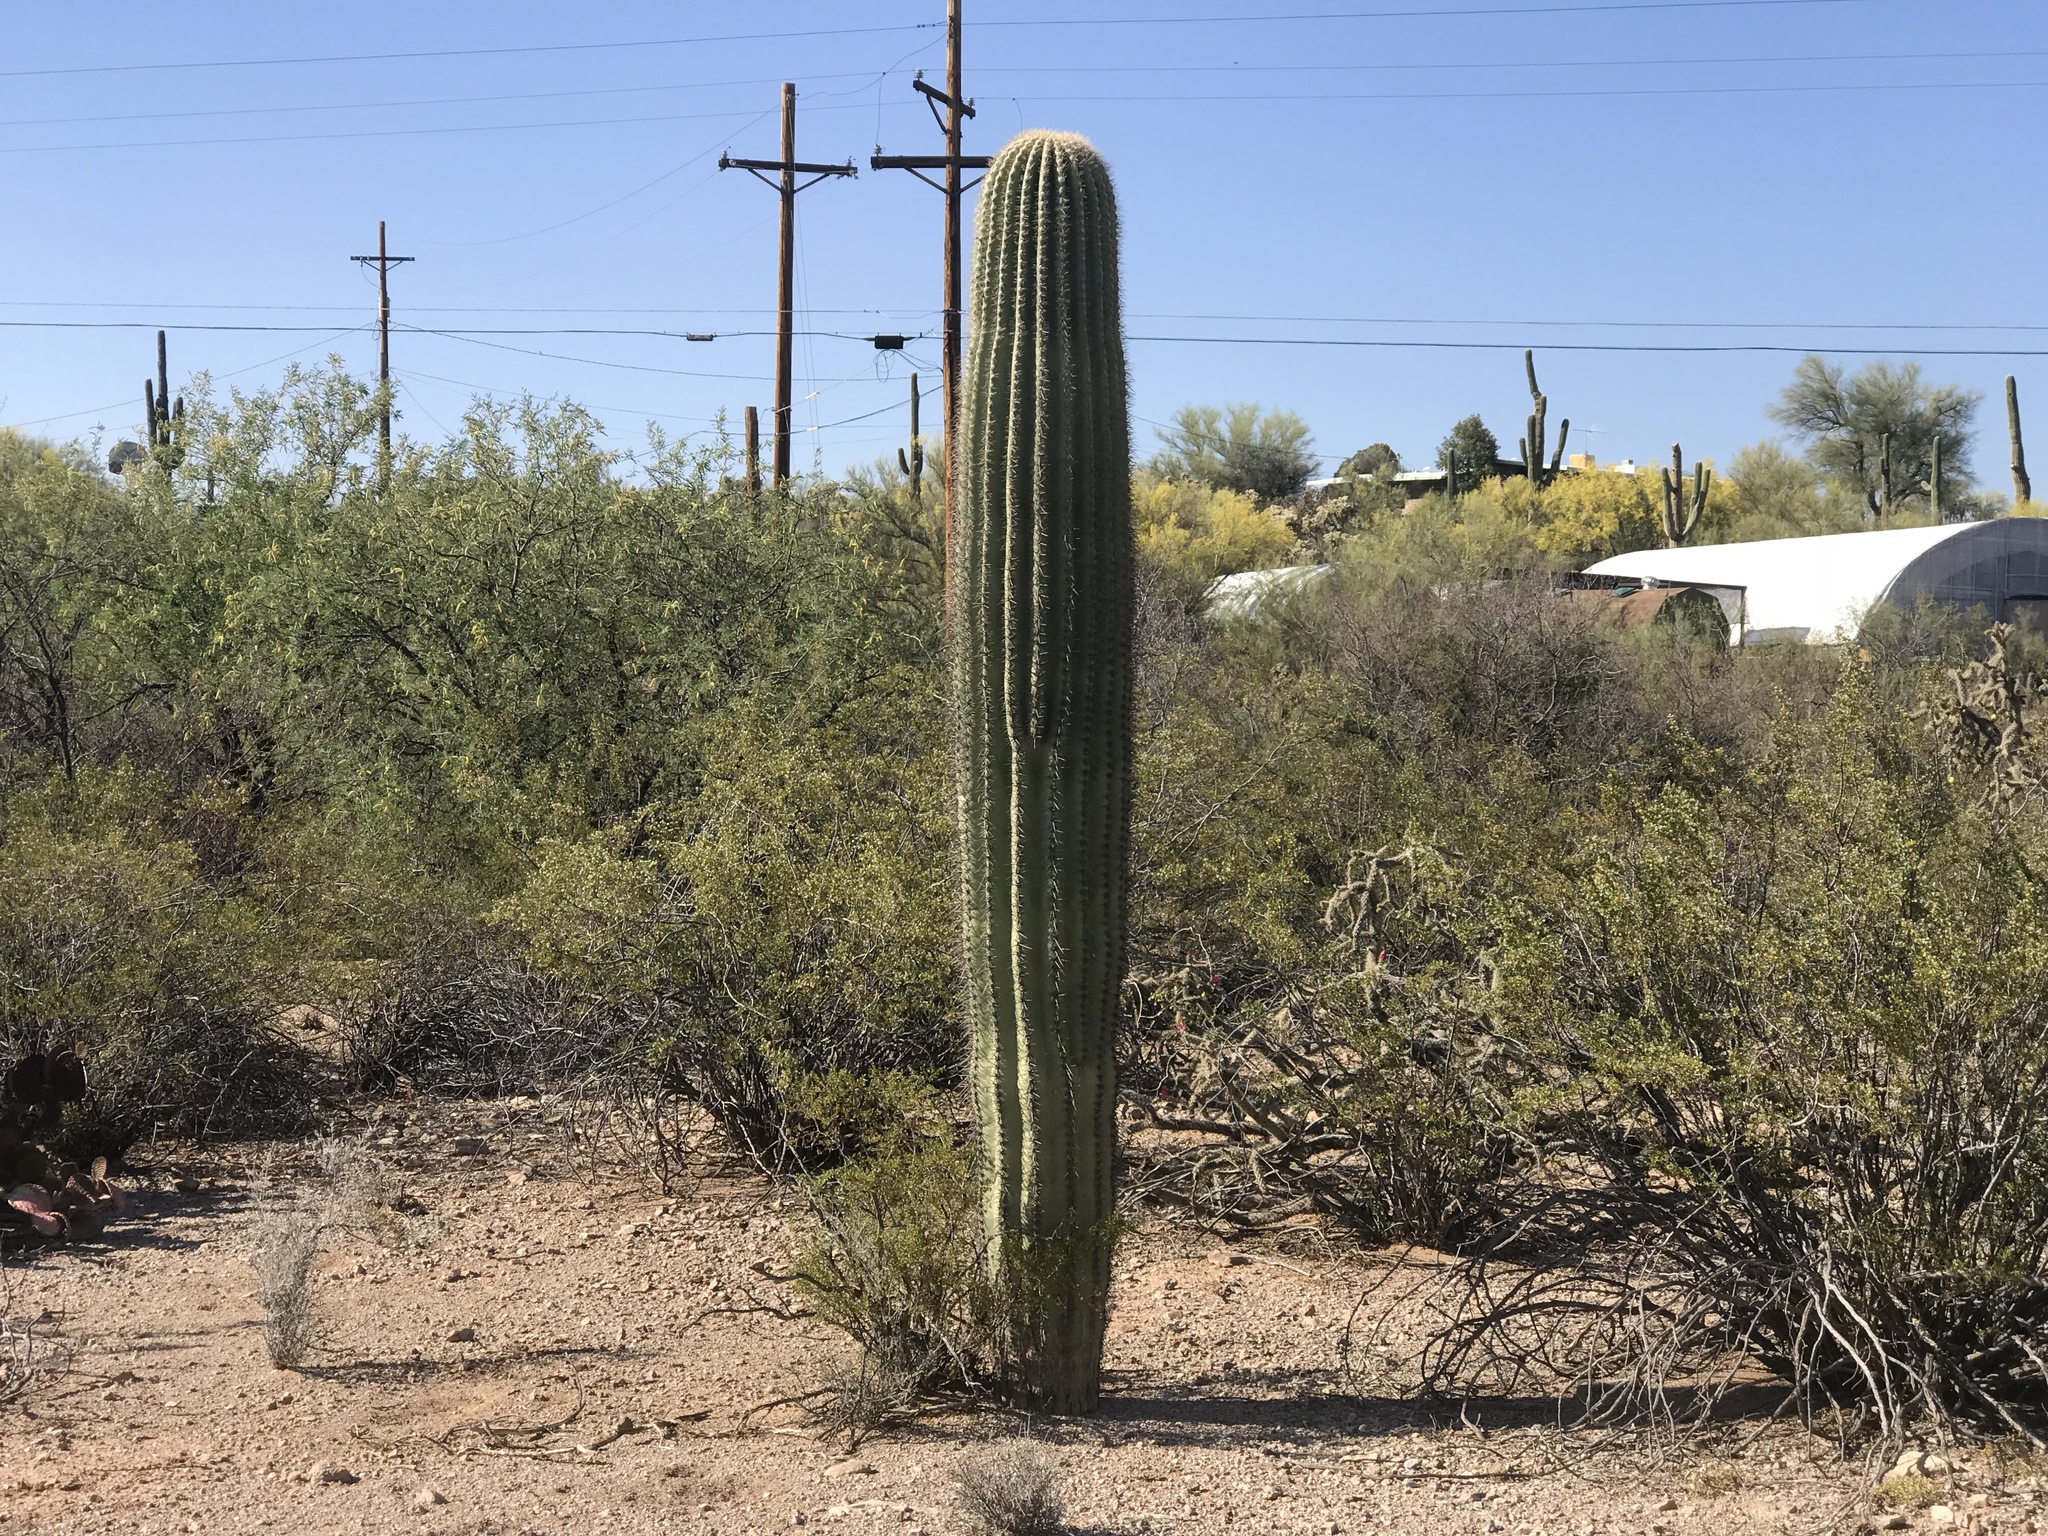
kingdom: Plantae
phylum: Tracheophyta
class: Magnoliopsida
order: Caryophyllales
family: Cactaceae
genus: Carnegiea
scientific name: Carnegiea gigantea
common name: Saguaro
